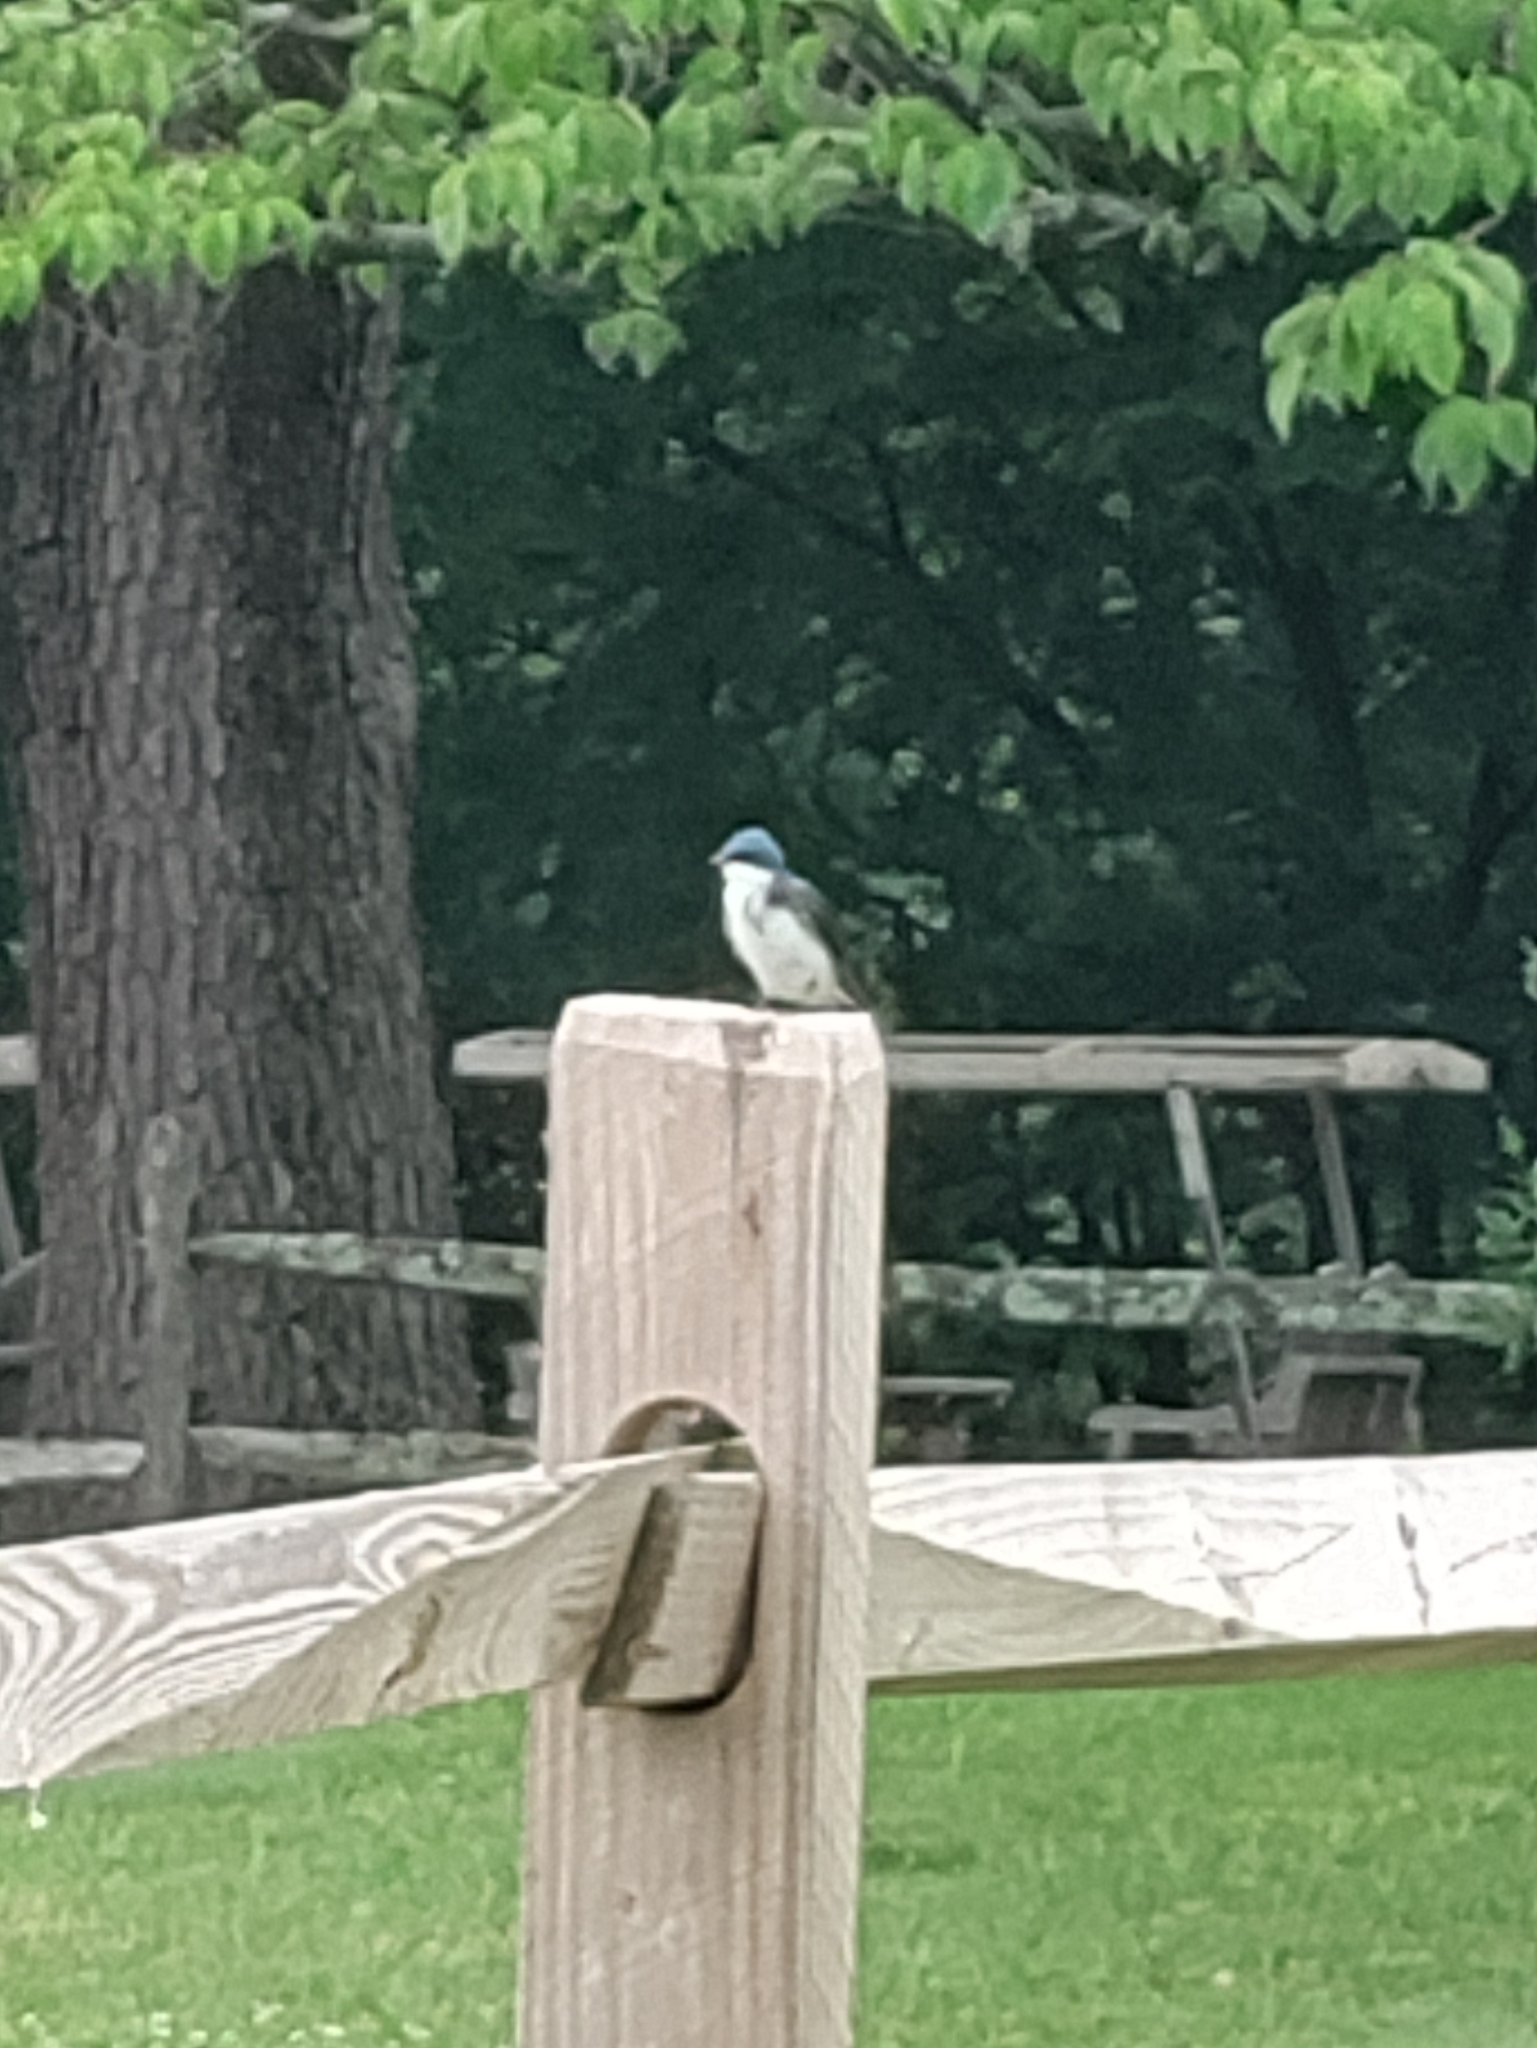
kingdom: Animalia
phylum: Chordata
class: Aves
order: Passeriformes
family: Hirundinidae
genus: Tachycineta
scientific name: Tachycineta bicolor
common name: Tree swallow
